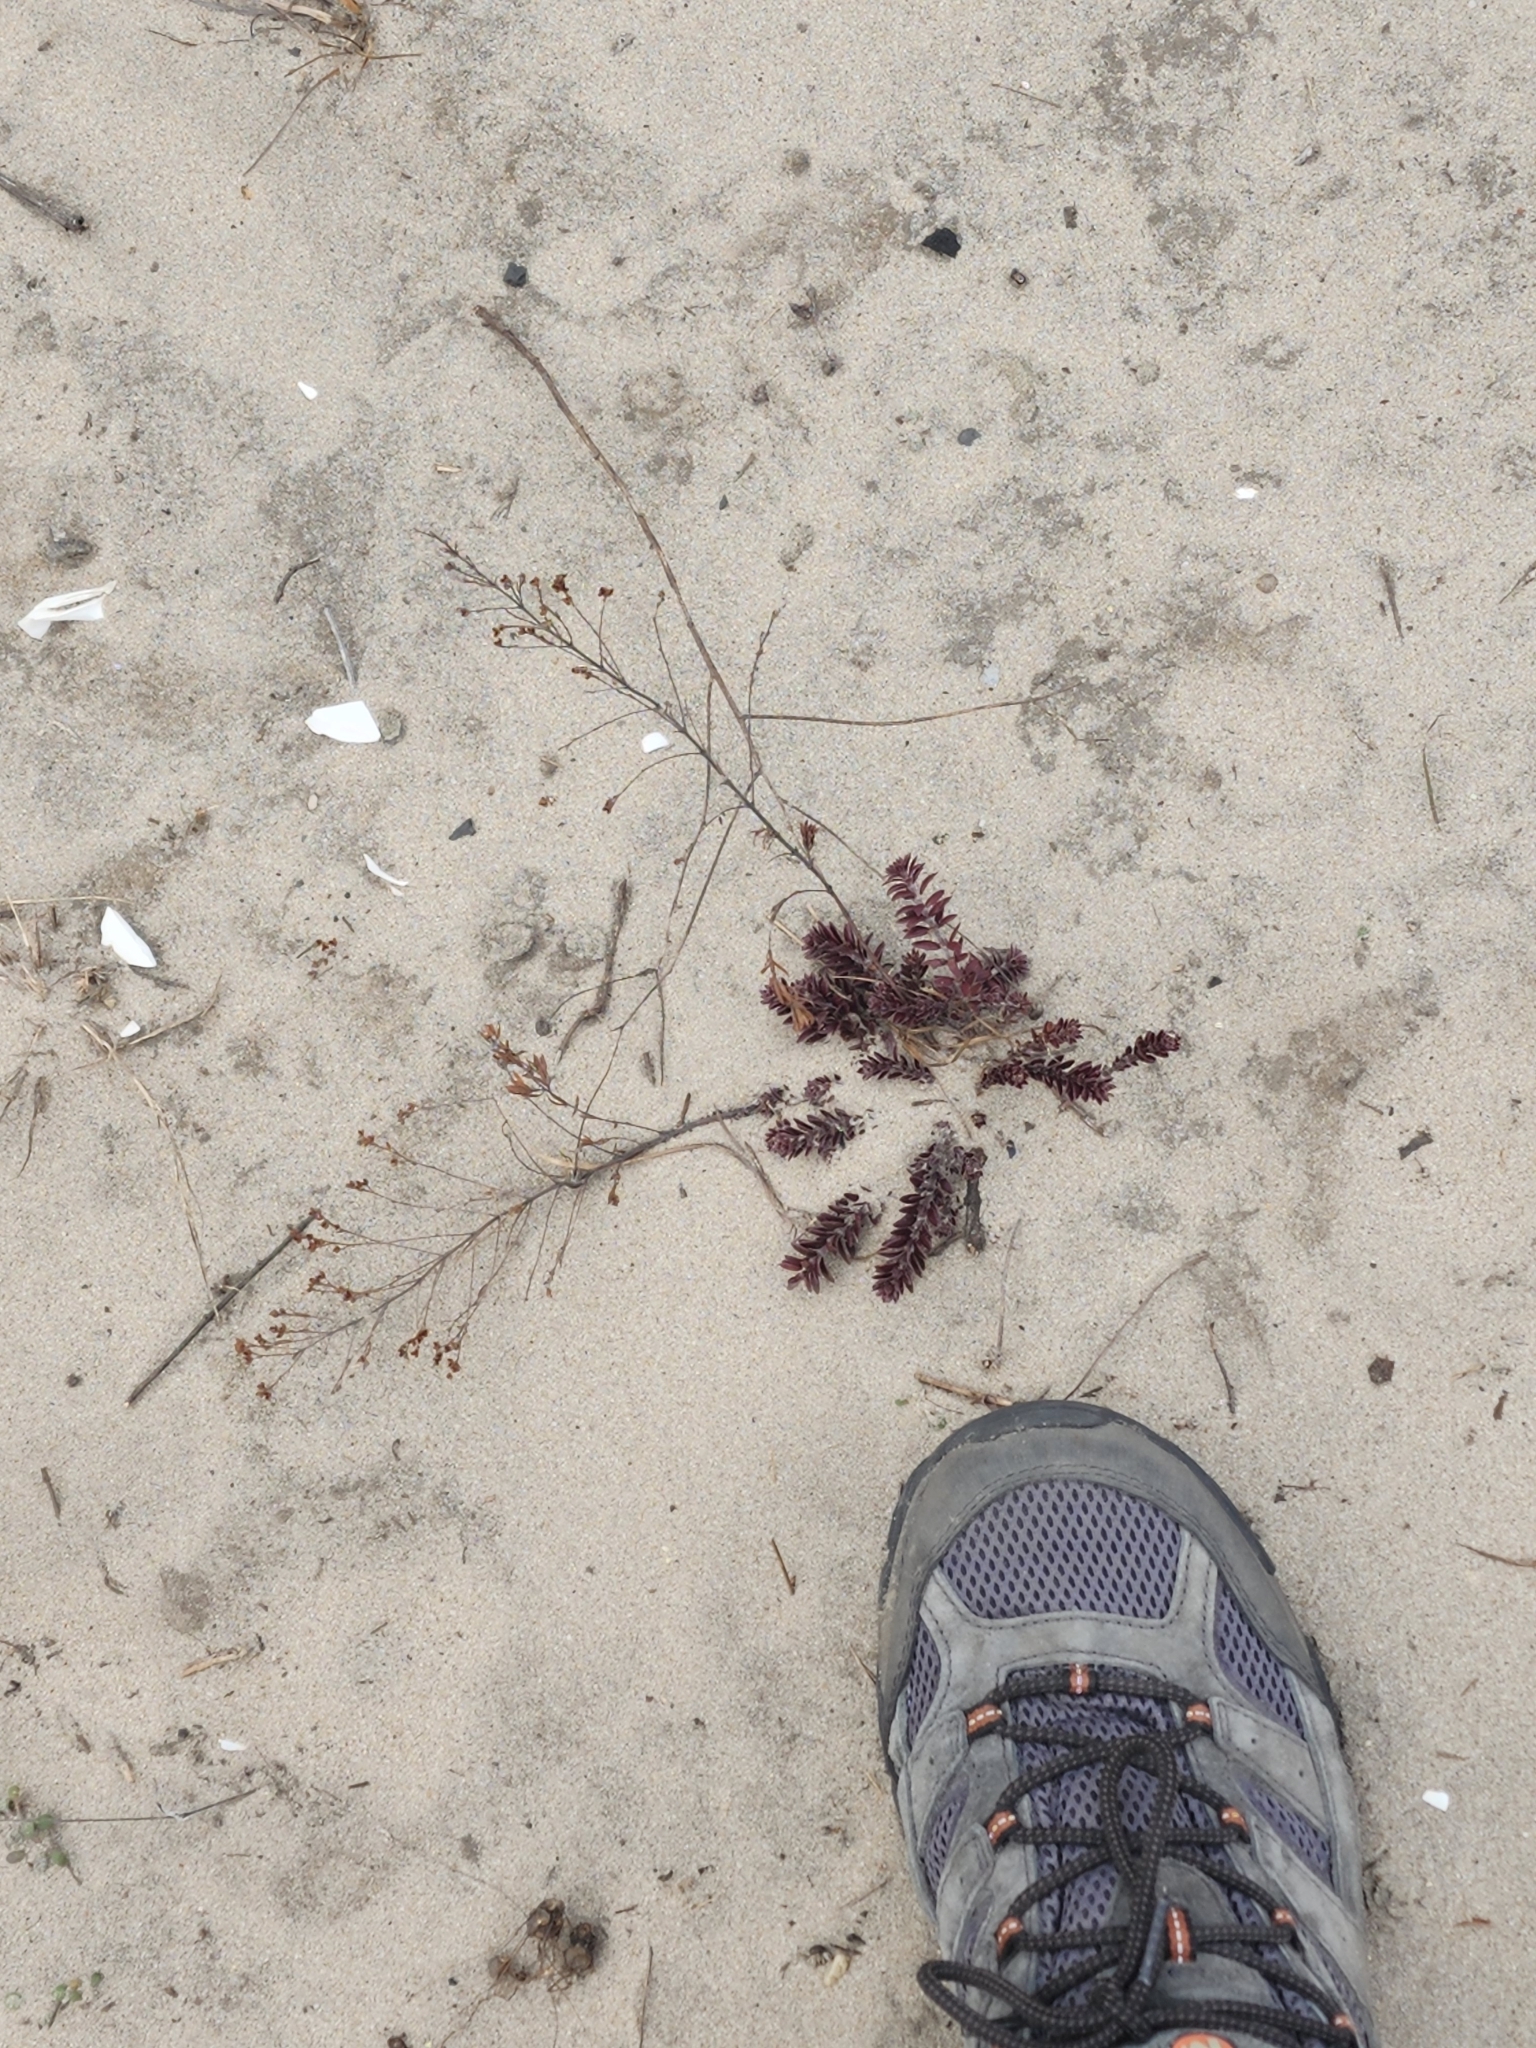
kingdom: Plantae
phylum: Tracheophyta
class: Magnoliopsida
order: Malvales
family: Cistaceae
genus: Lechea
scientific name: Lechea maritima
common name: Beach pinweed
